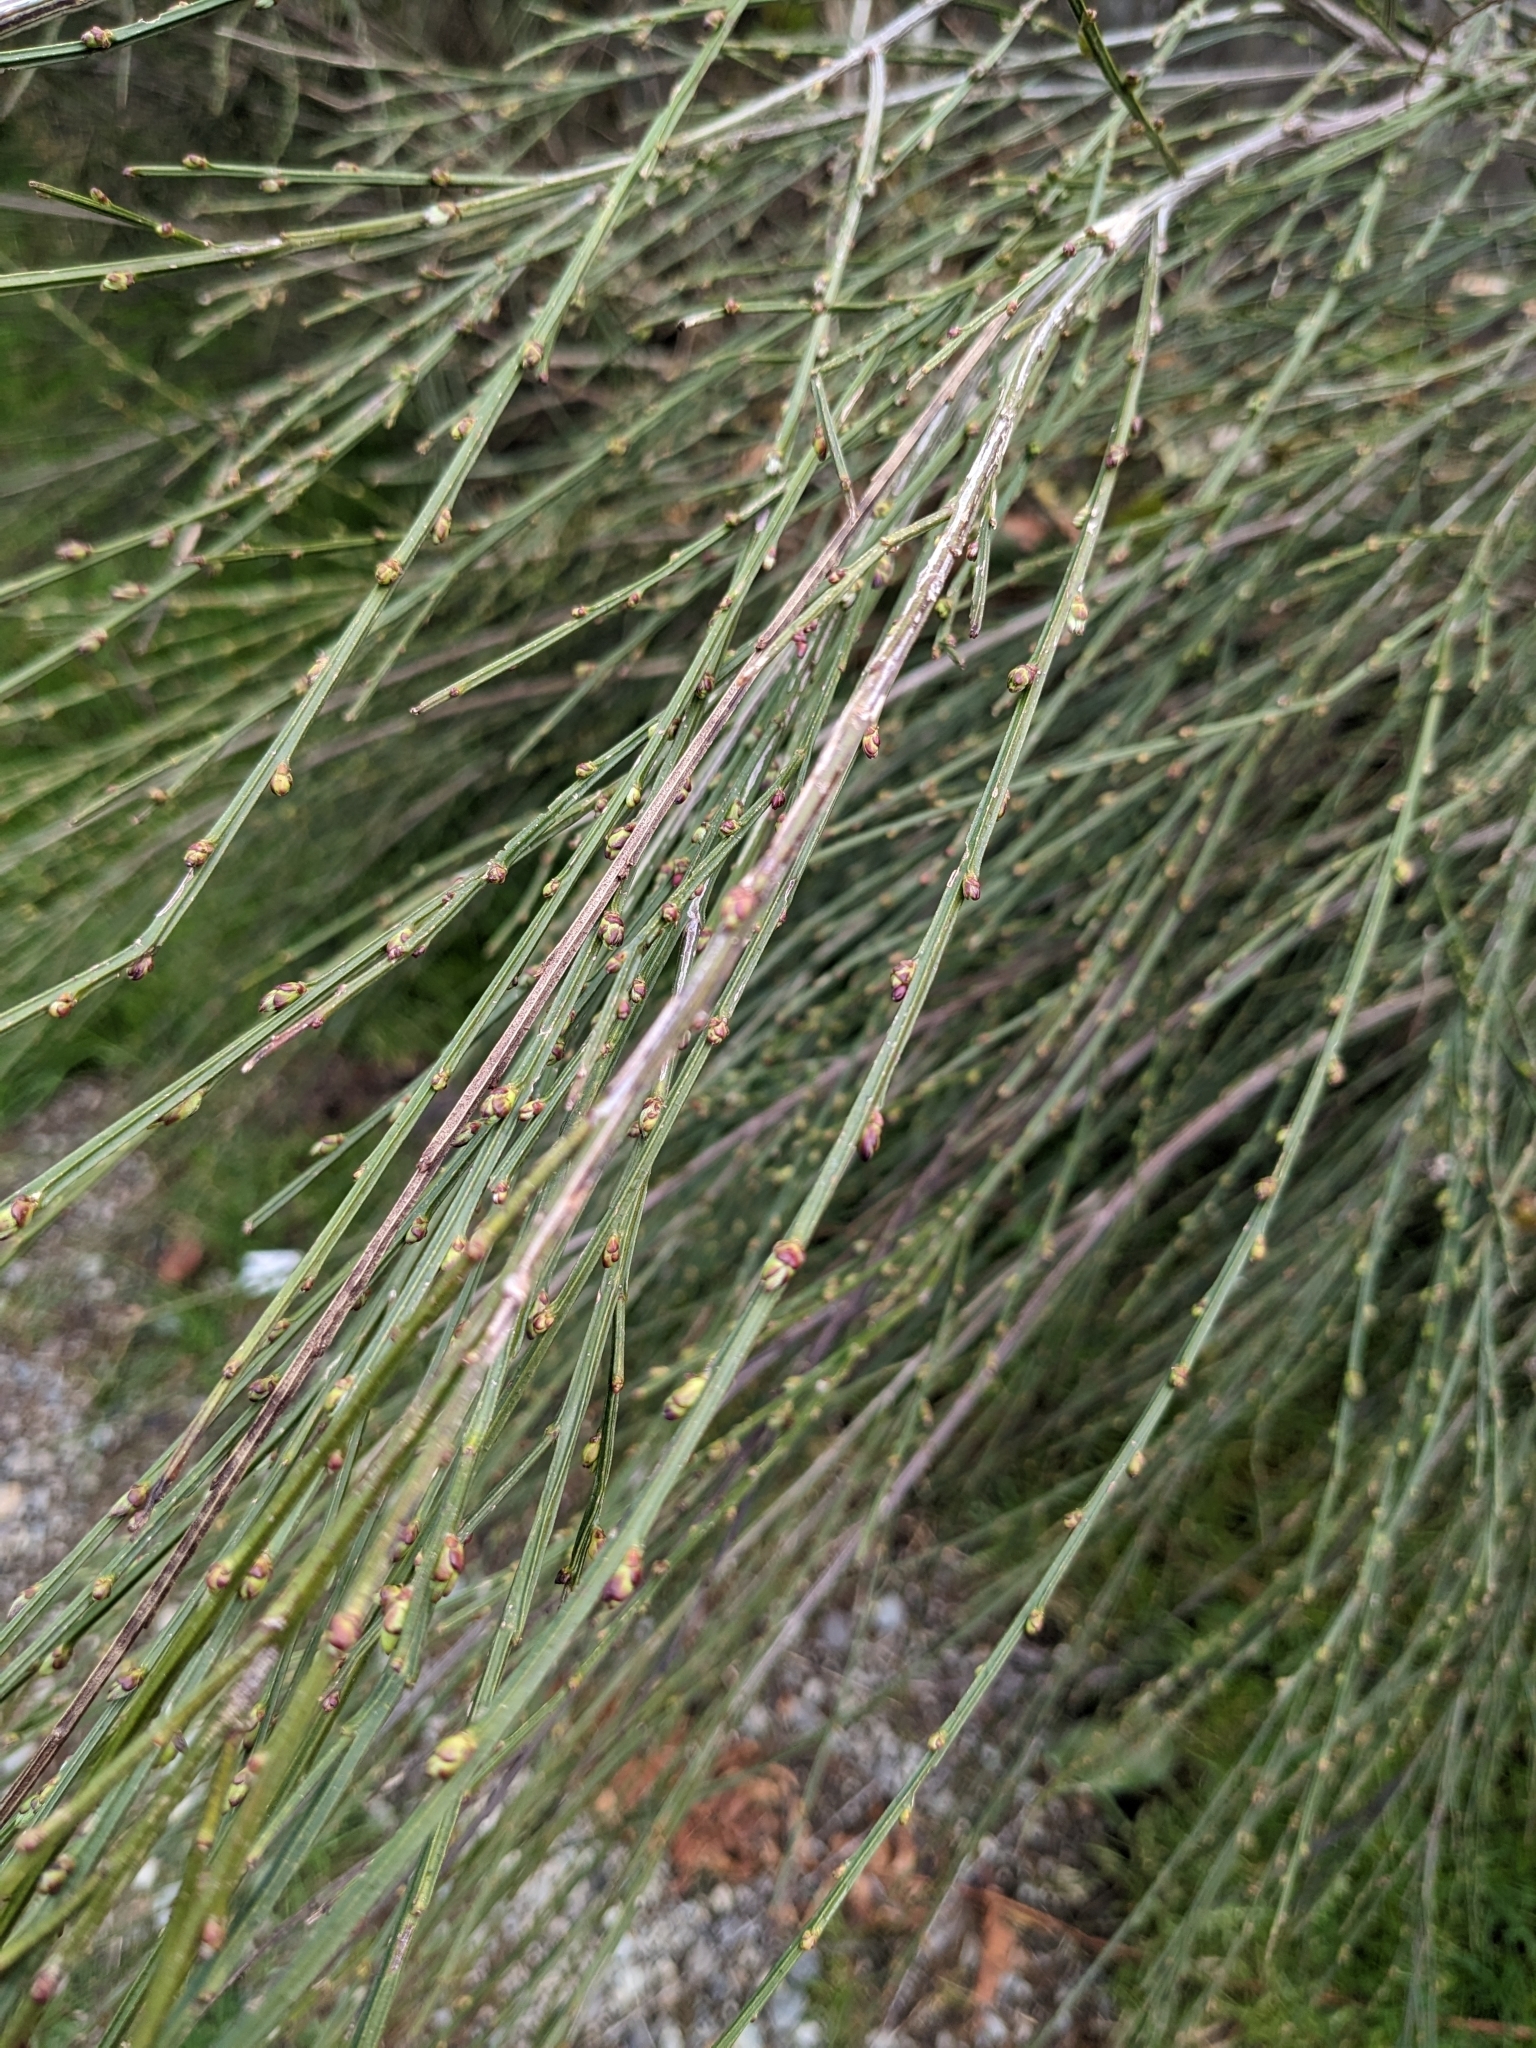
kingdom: Plantae
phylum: Tracheophyta
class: Magnoliopsida
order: Fabales
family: Fabaceae
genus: Cytisus
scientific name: Cytisus scoparius
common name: Scotch broom
